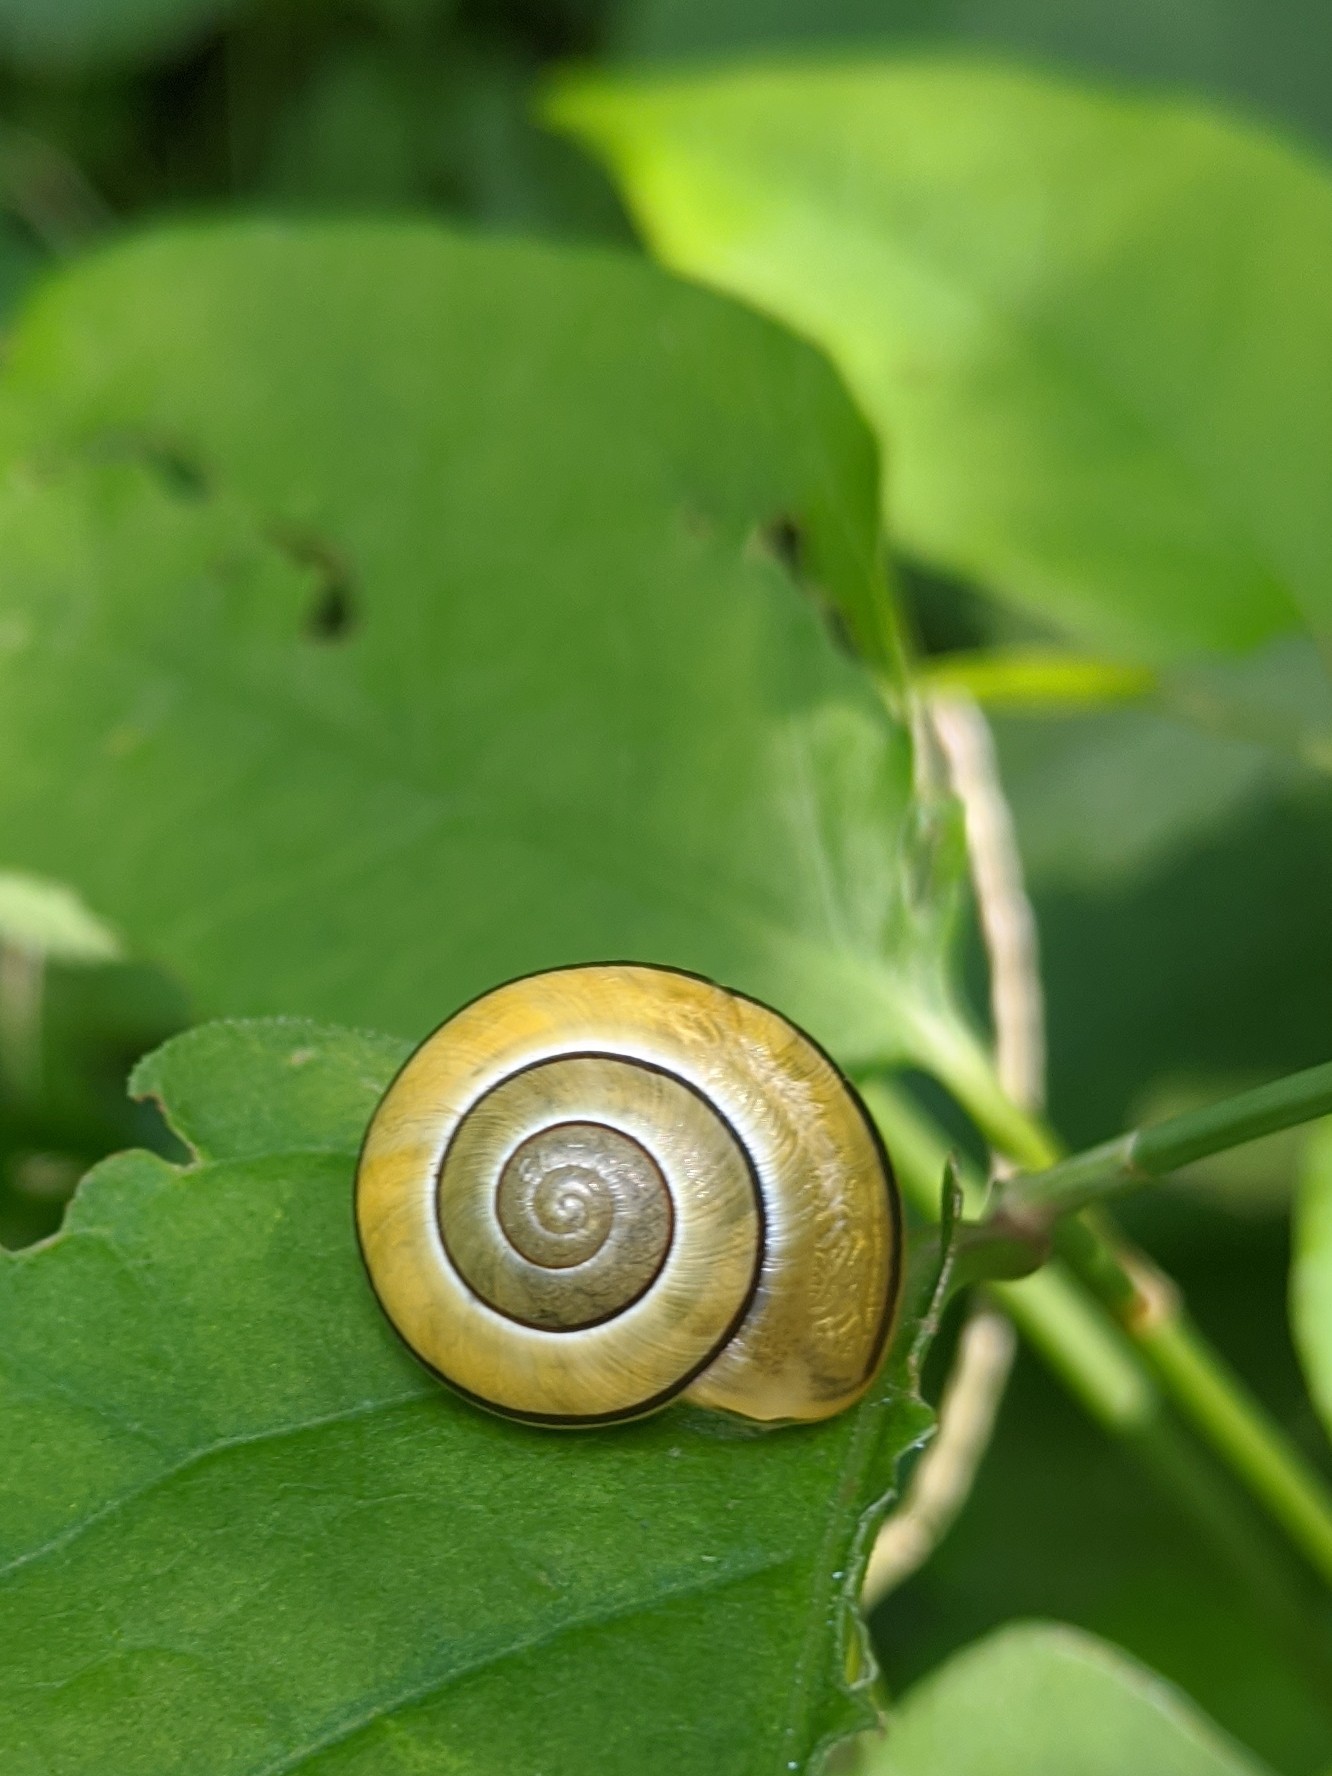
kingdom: Animalia
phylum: Mollusca
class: Gastropoda
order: Stylommatophora
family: Helicidae
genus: Cepaea
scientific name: Cepaea
